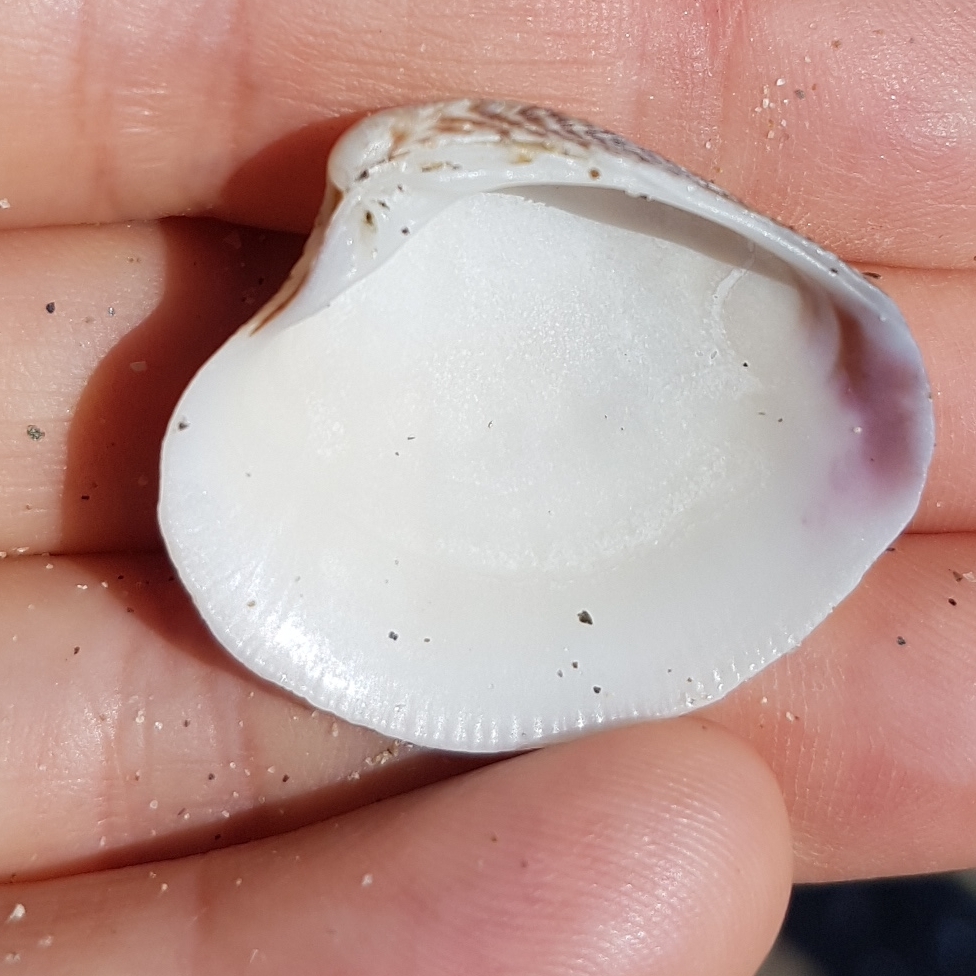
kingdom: Animalia
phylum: Mollusca
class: Bivalvia
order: Venerida
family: Veneridae
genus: Chamelea
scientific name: Chamelea gallina
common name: Chicken venus
